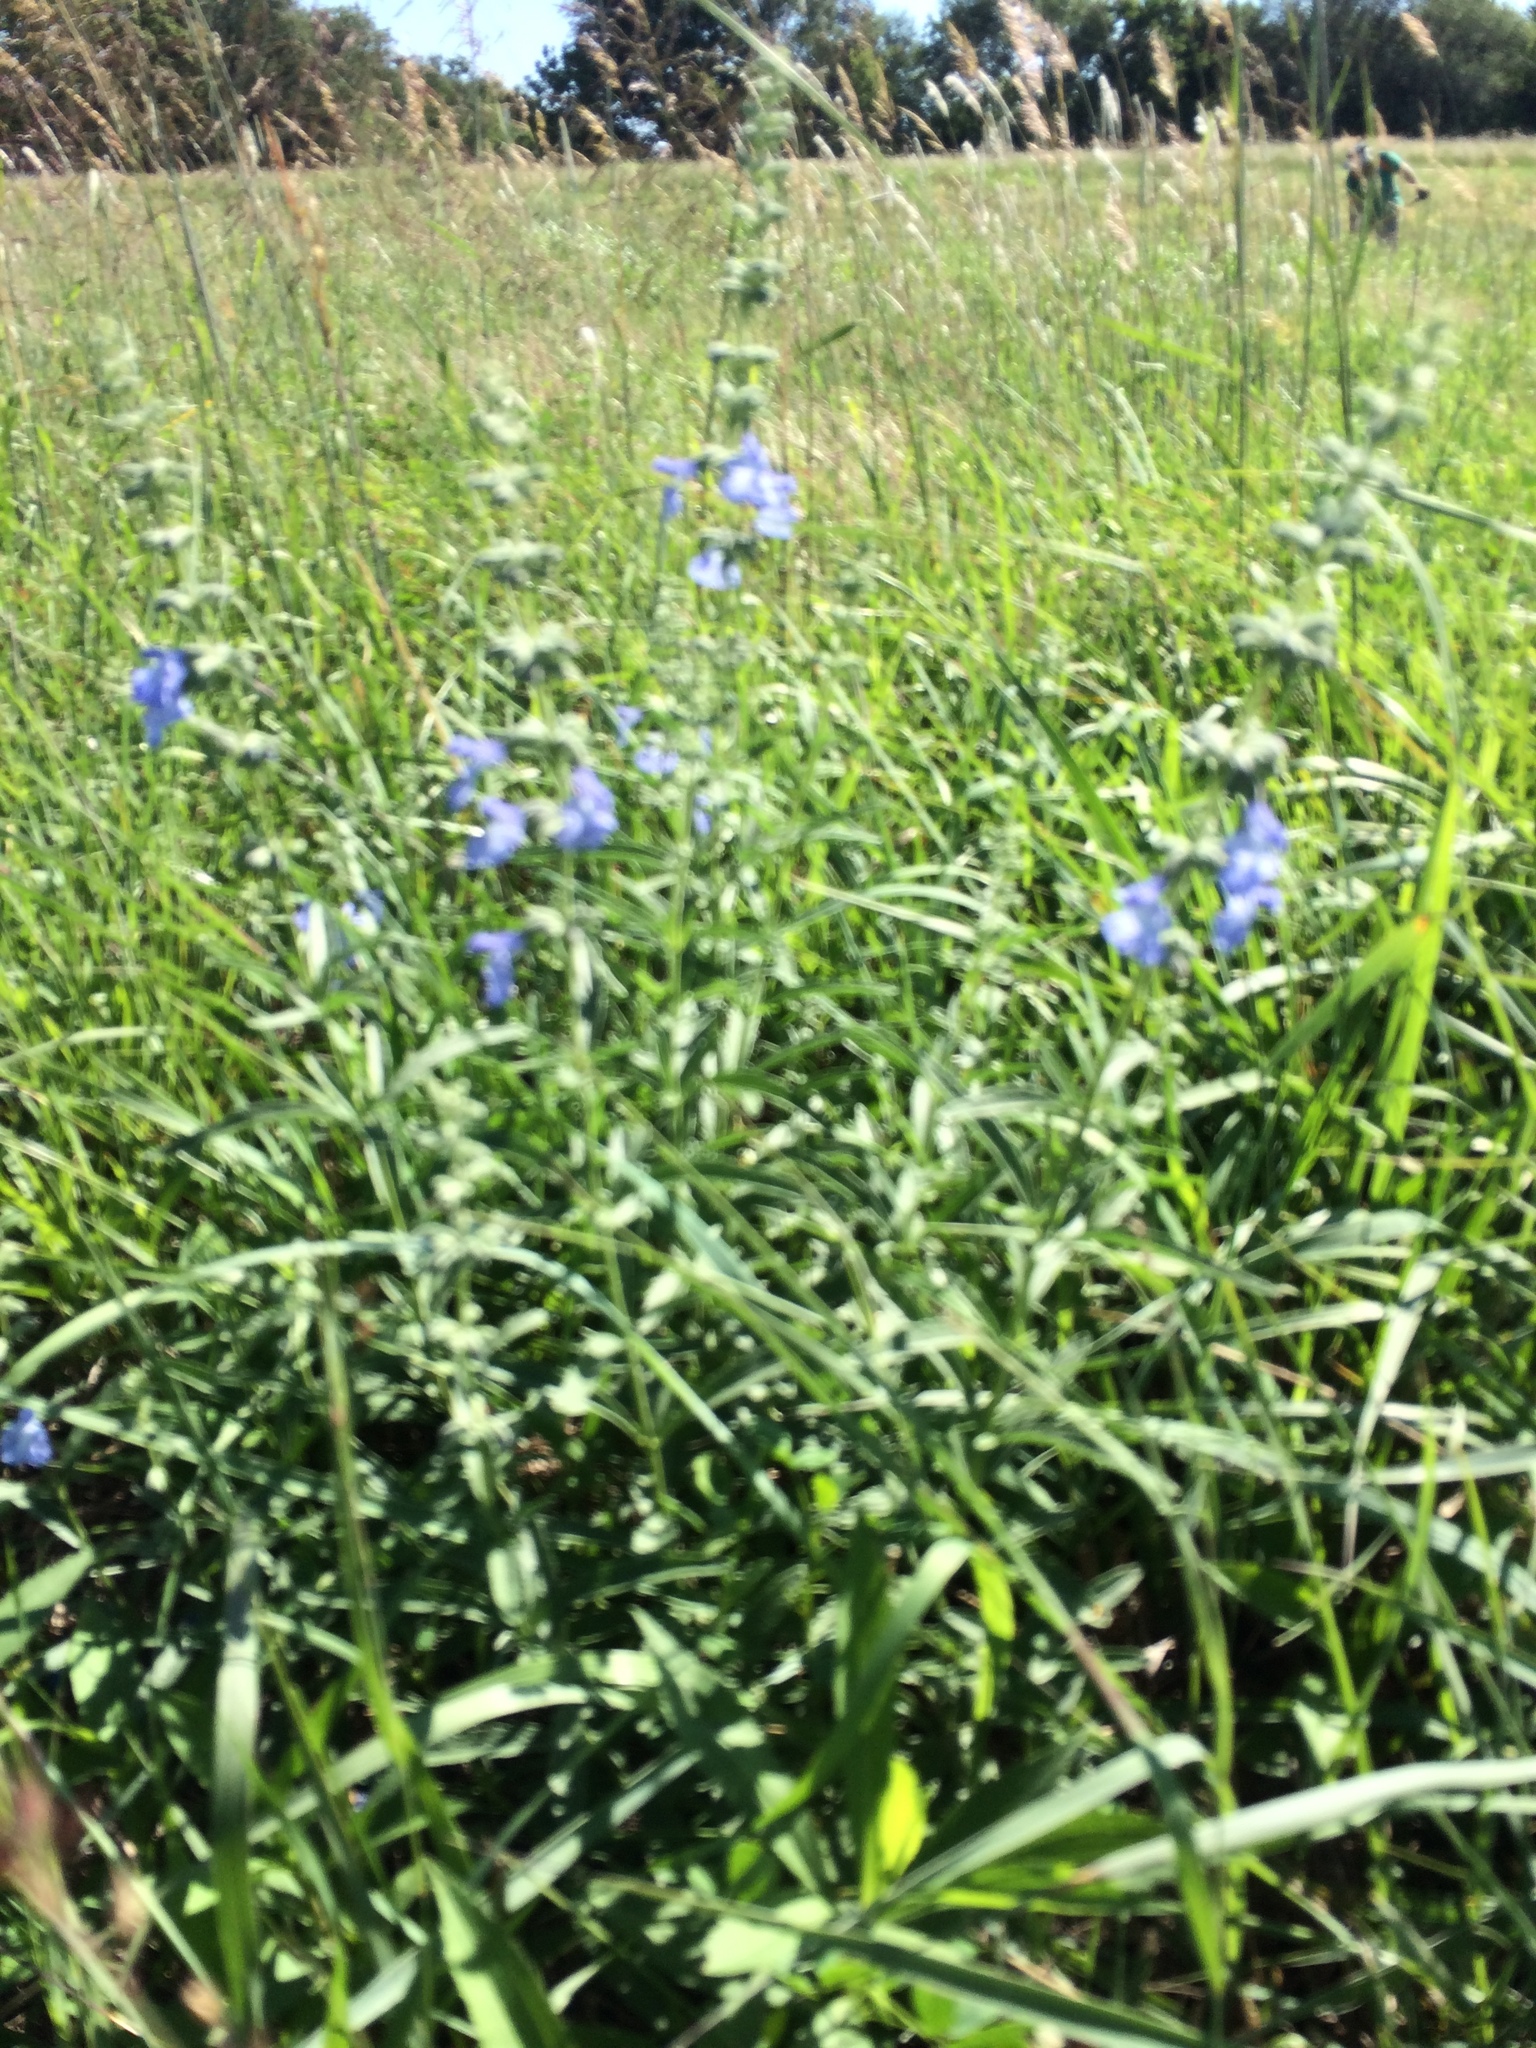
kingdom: Plantae
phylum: Tracheophyta
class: Magnoliopsida
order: Lamiales
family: Lamiaceae
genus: Salvia
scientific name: Salvia azurea
